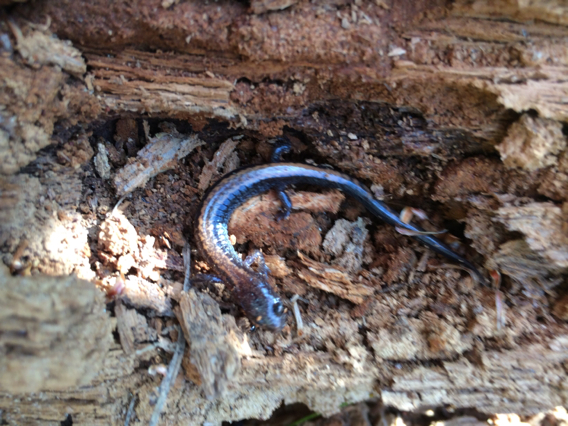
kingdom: Animalia
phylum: Chordata
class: Amphibia
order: Caudata
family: Plethodontidae
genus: Plethodon
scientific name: Plethodon cinereus
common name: Redback salamander
